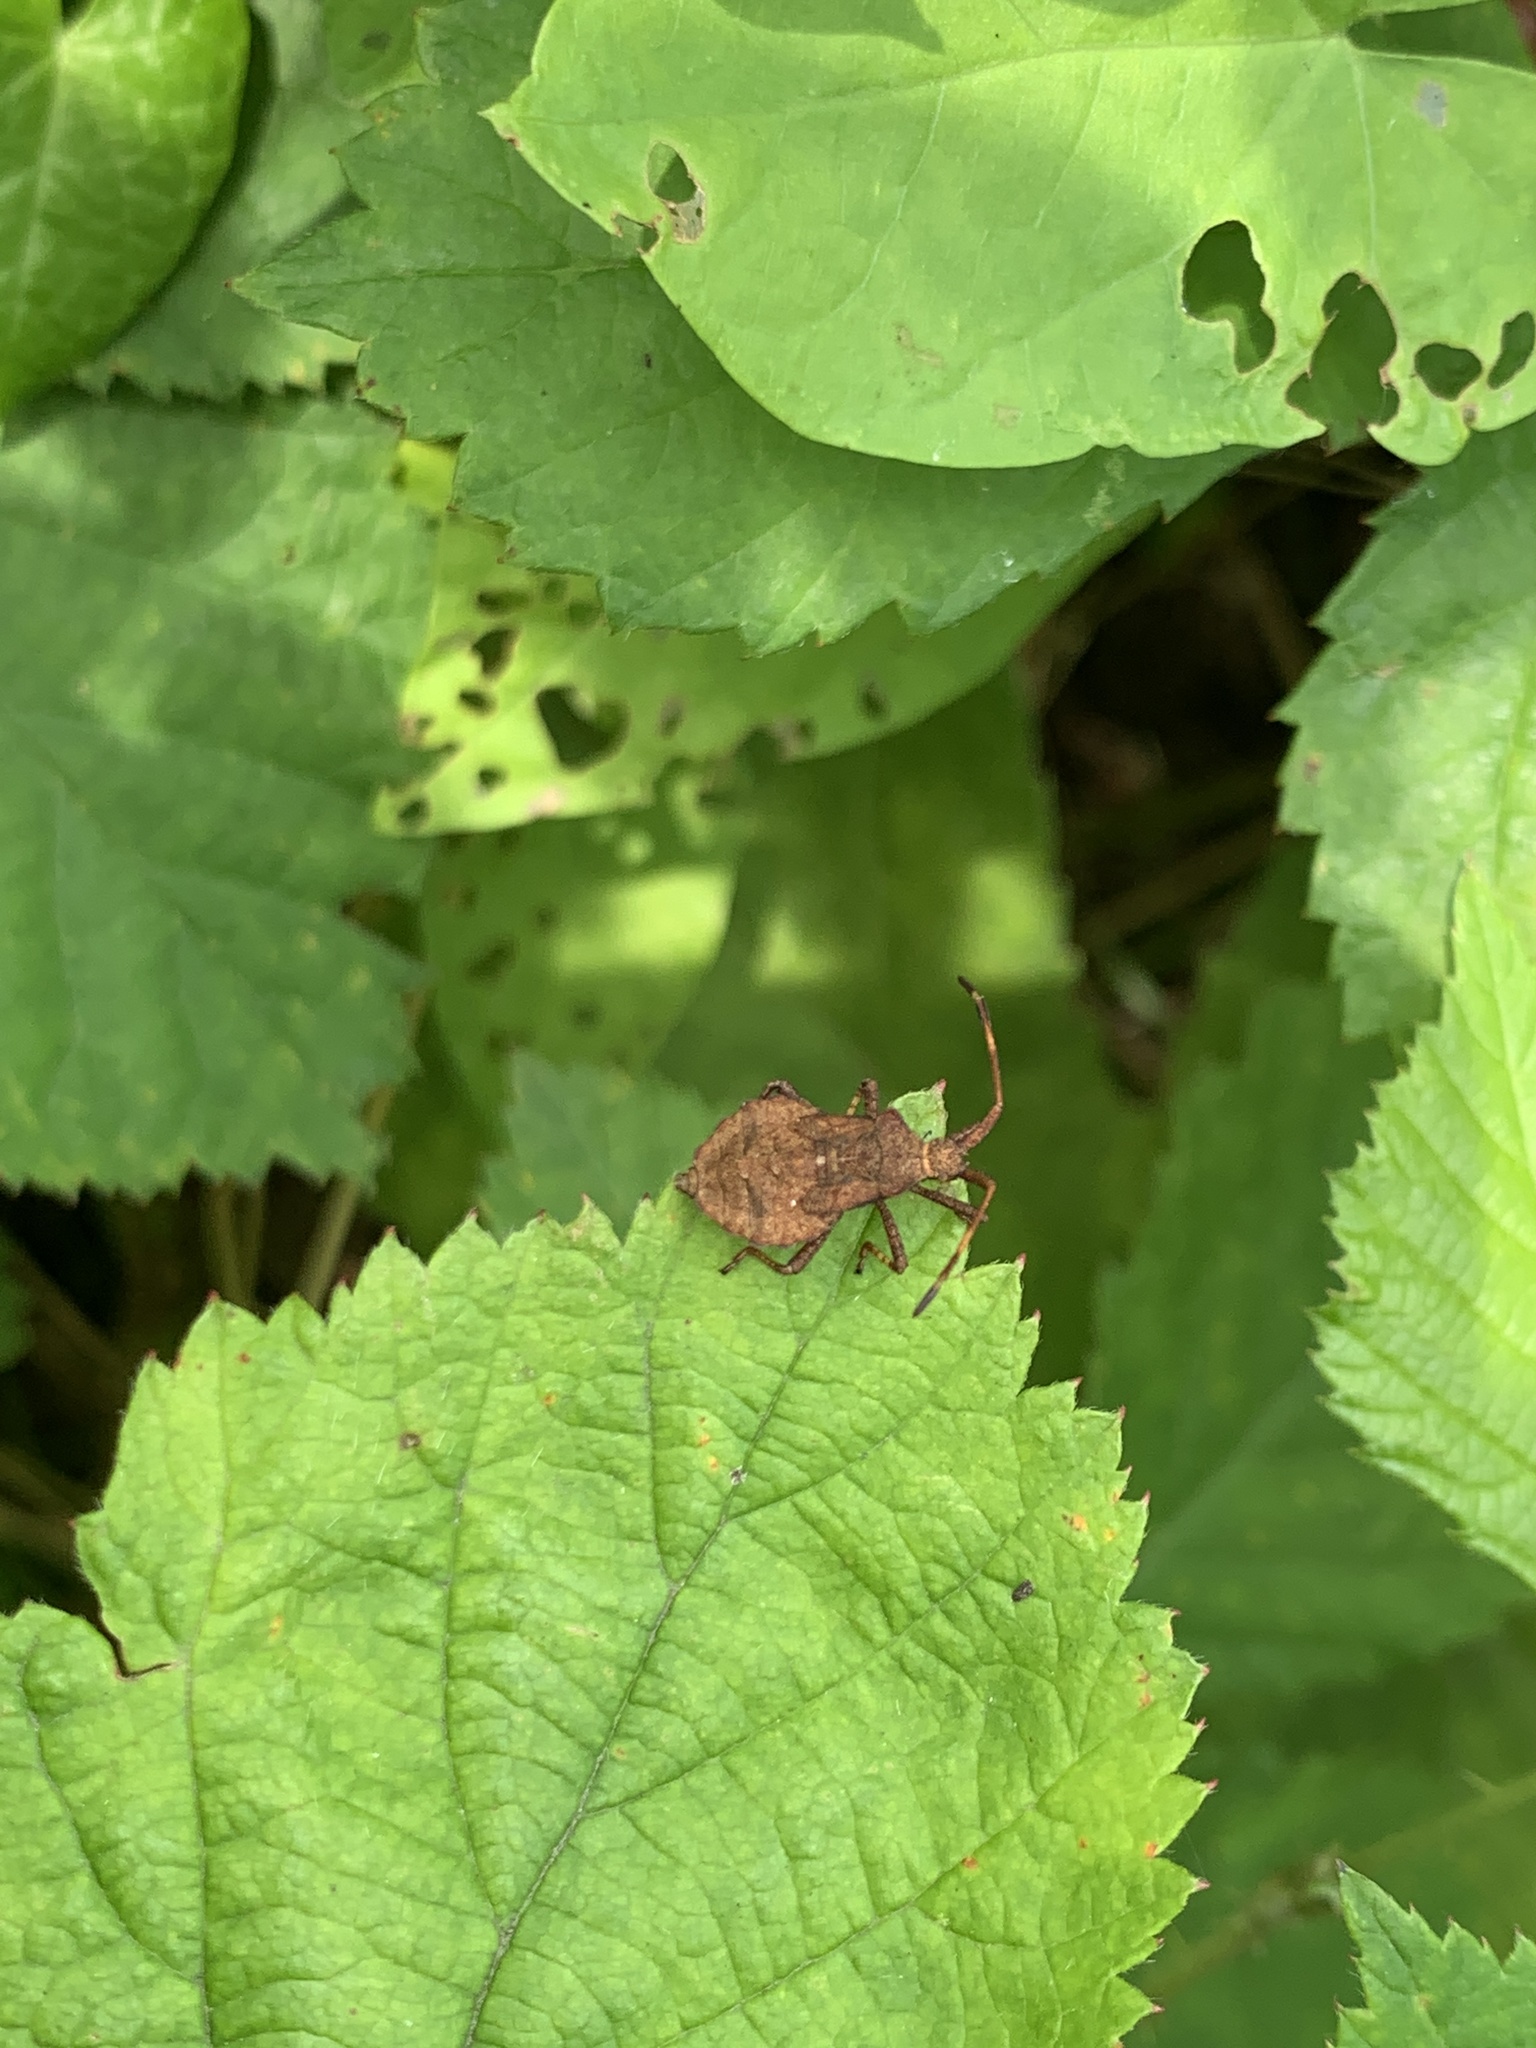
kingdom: Animalia
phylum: Arthropoda
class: Insecta
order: Hemiptera
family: Coreidae
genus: Coreus
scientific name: Coreus marginatus
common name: Dock bug
